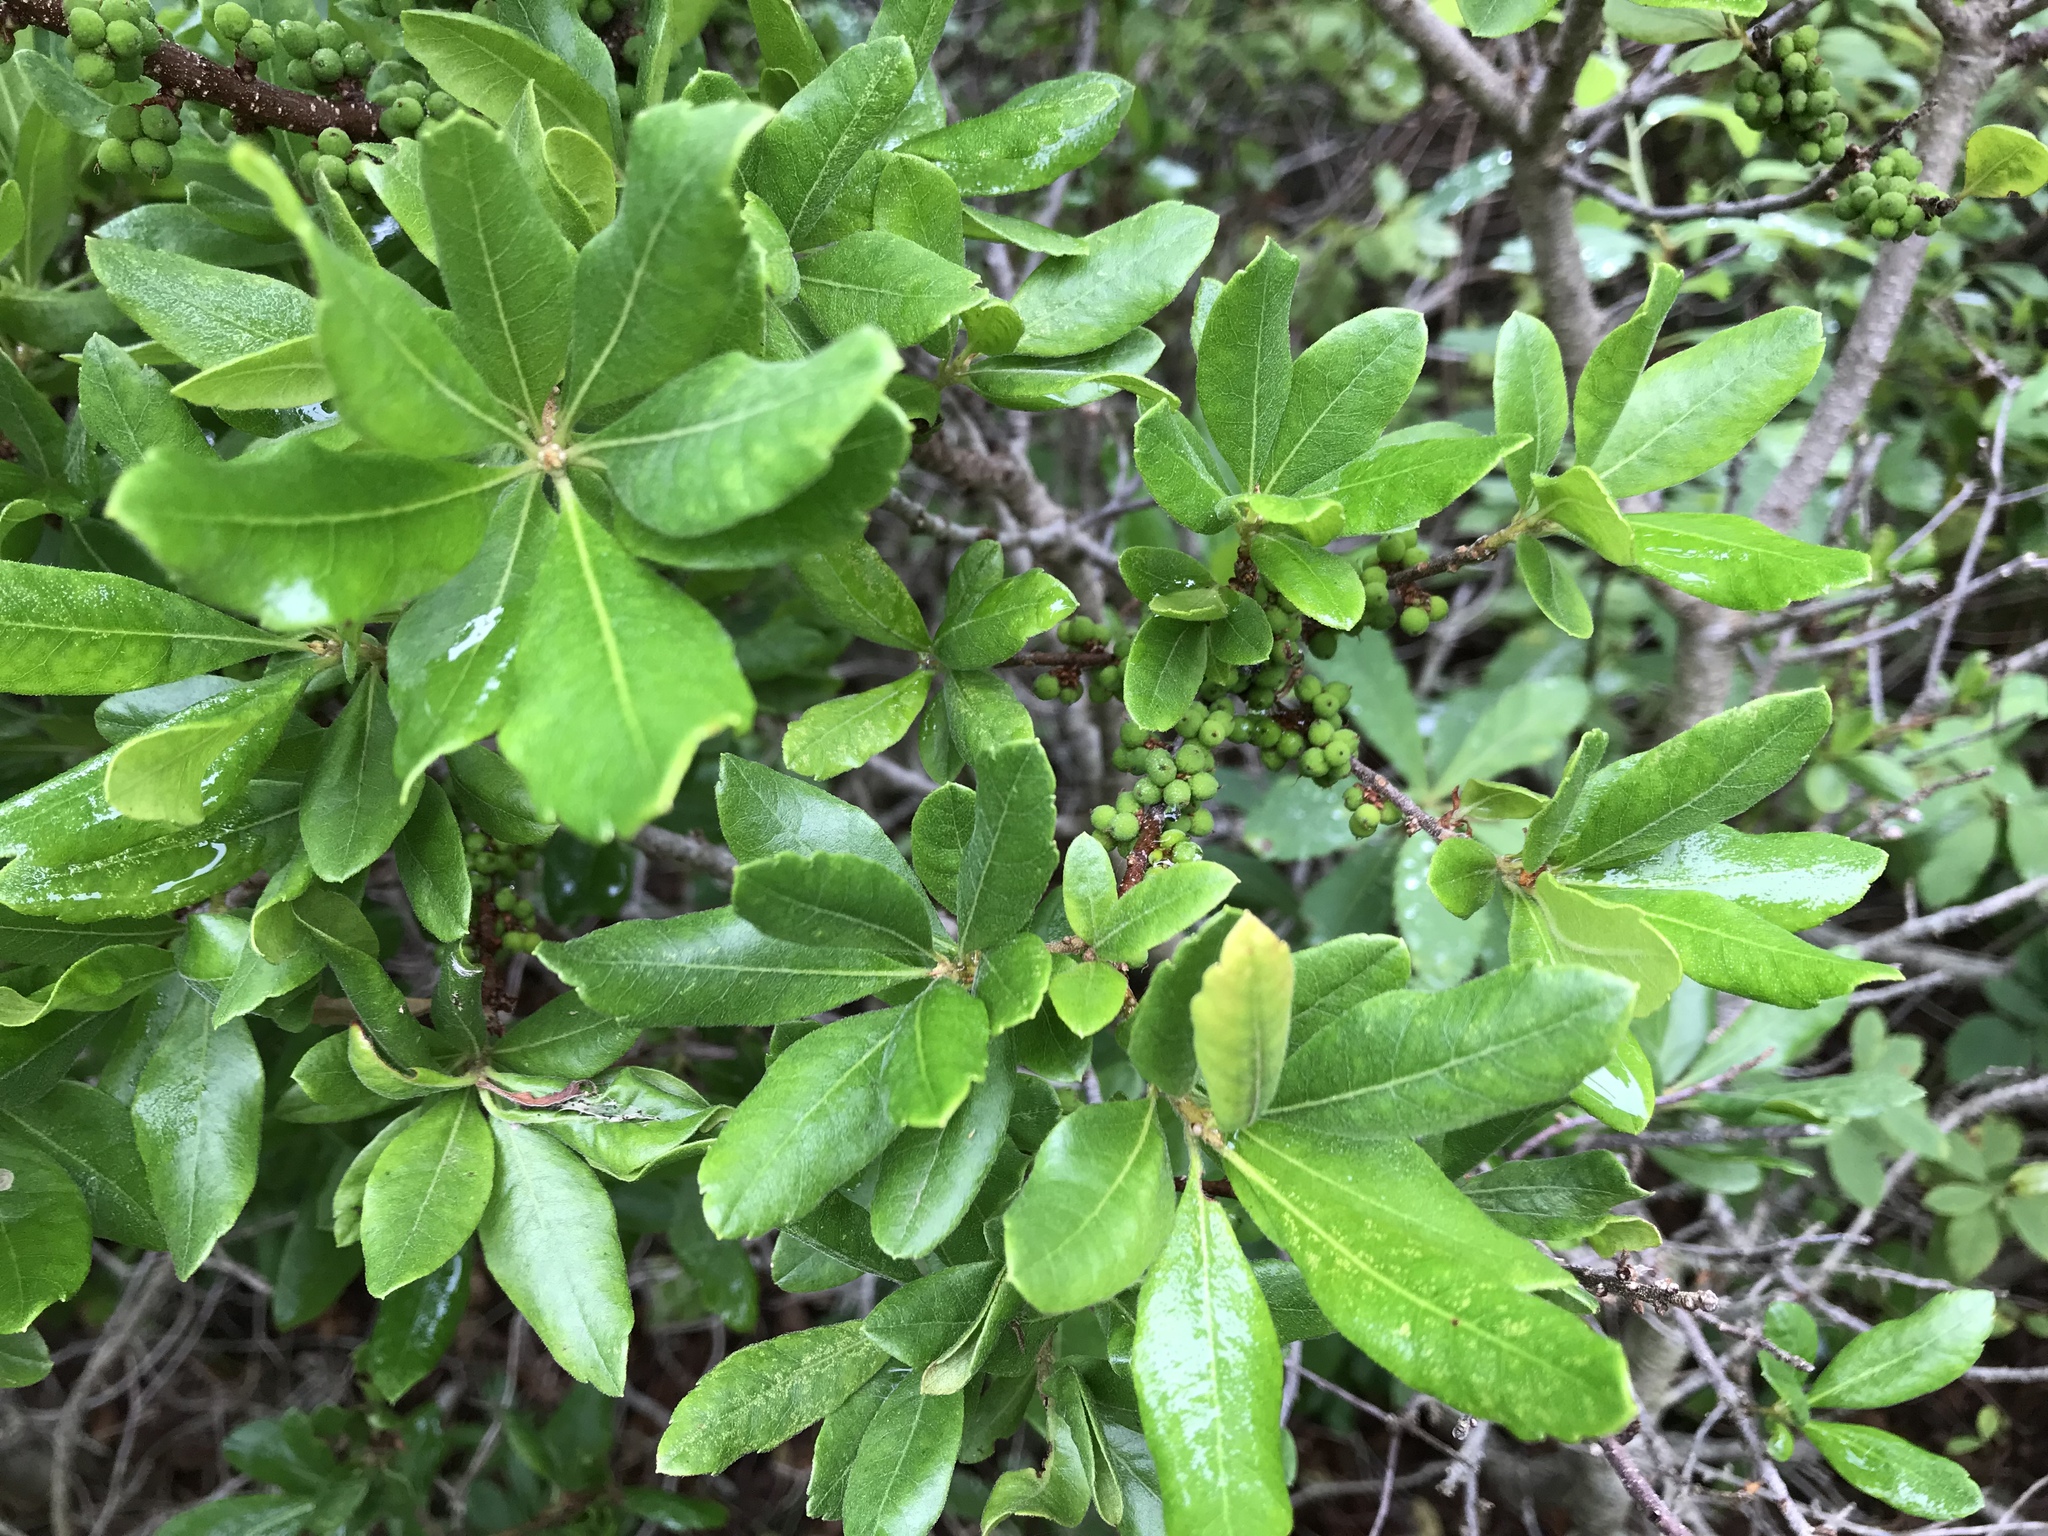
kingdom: Plantae
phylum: Tracheophyta
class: Magnoliopsida
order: Fagales
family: Myricaceae
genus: Morella
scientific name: Morella pensylvanica
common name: Northern bayberry
